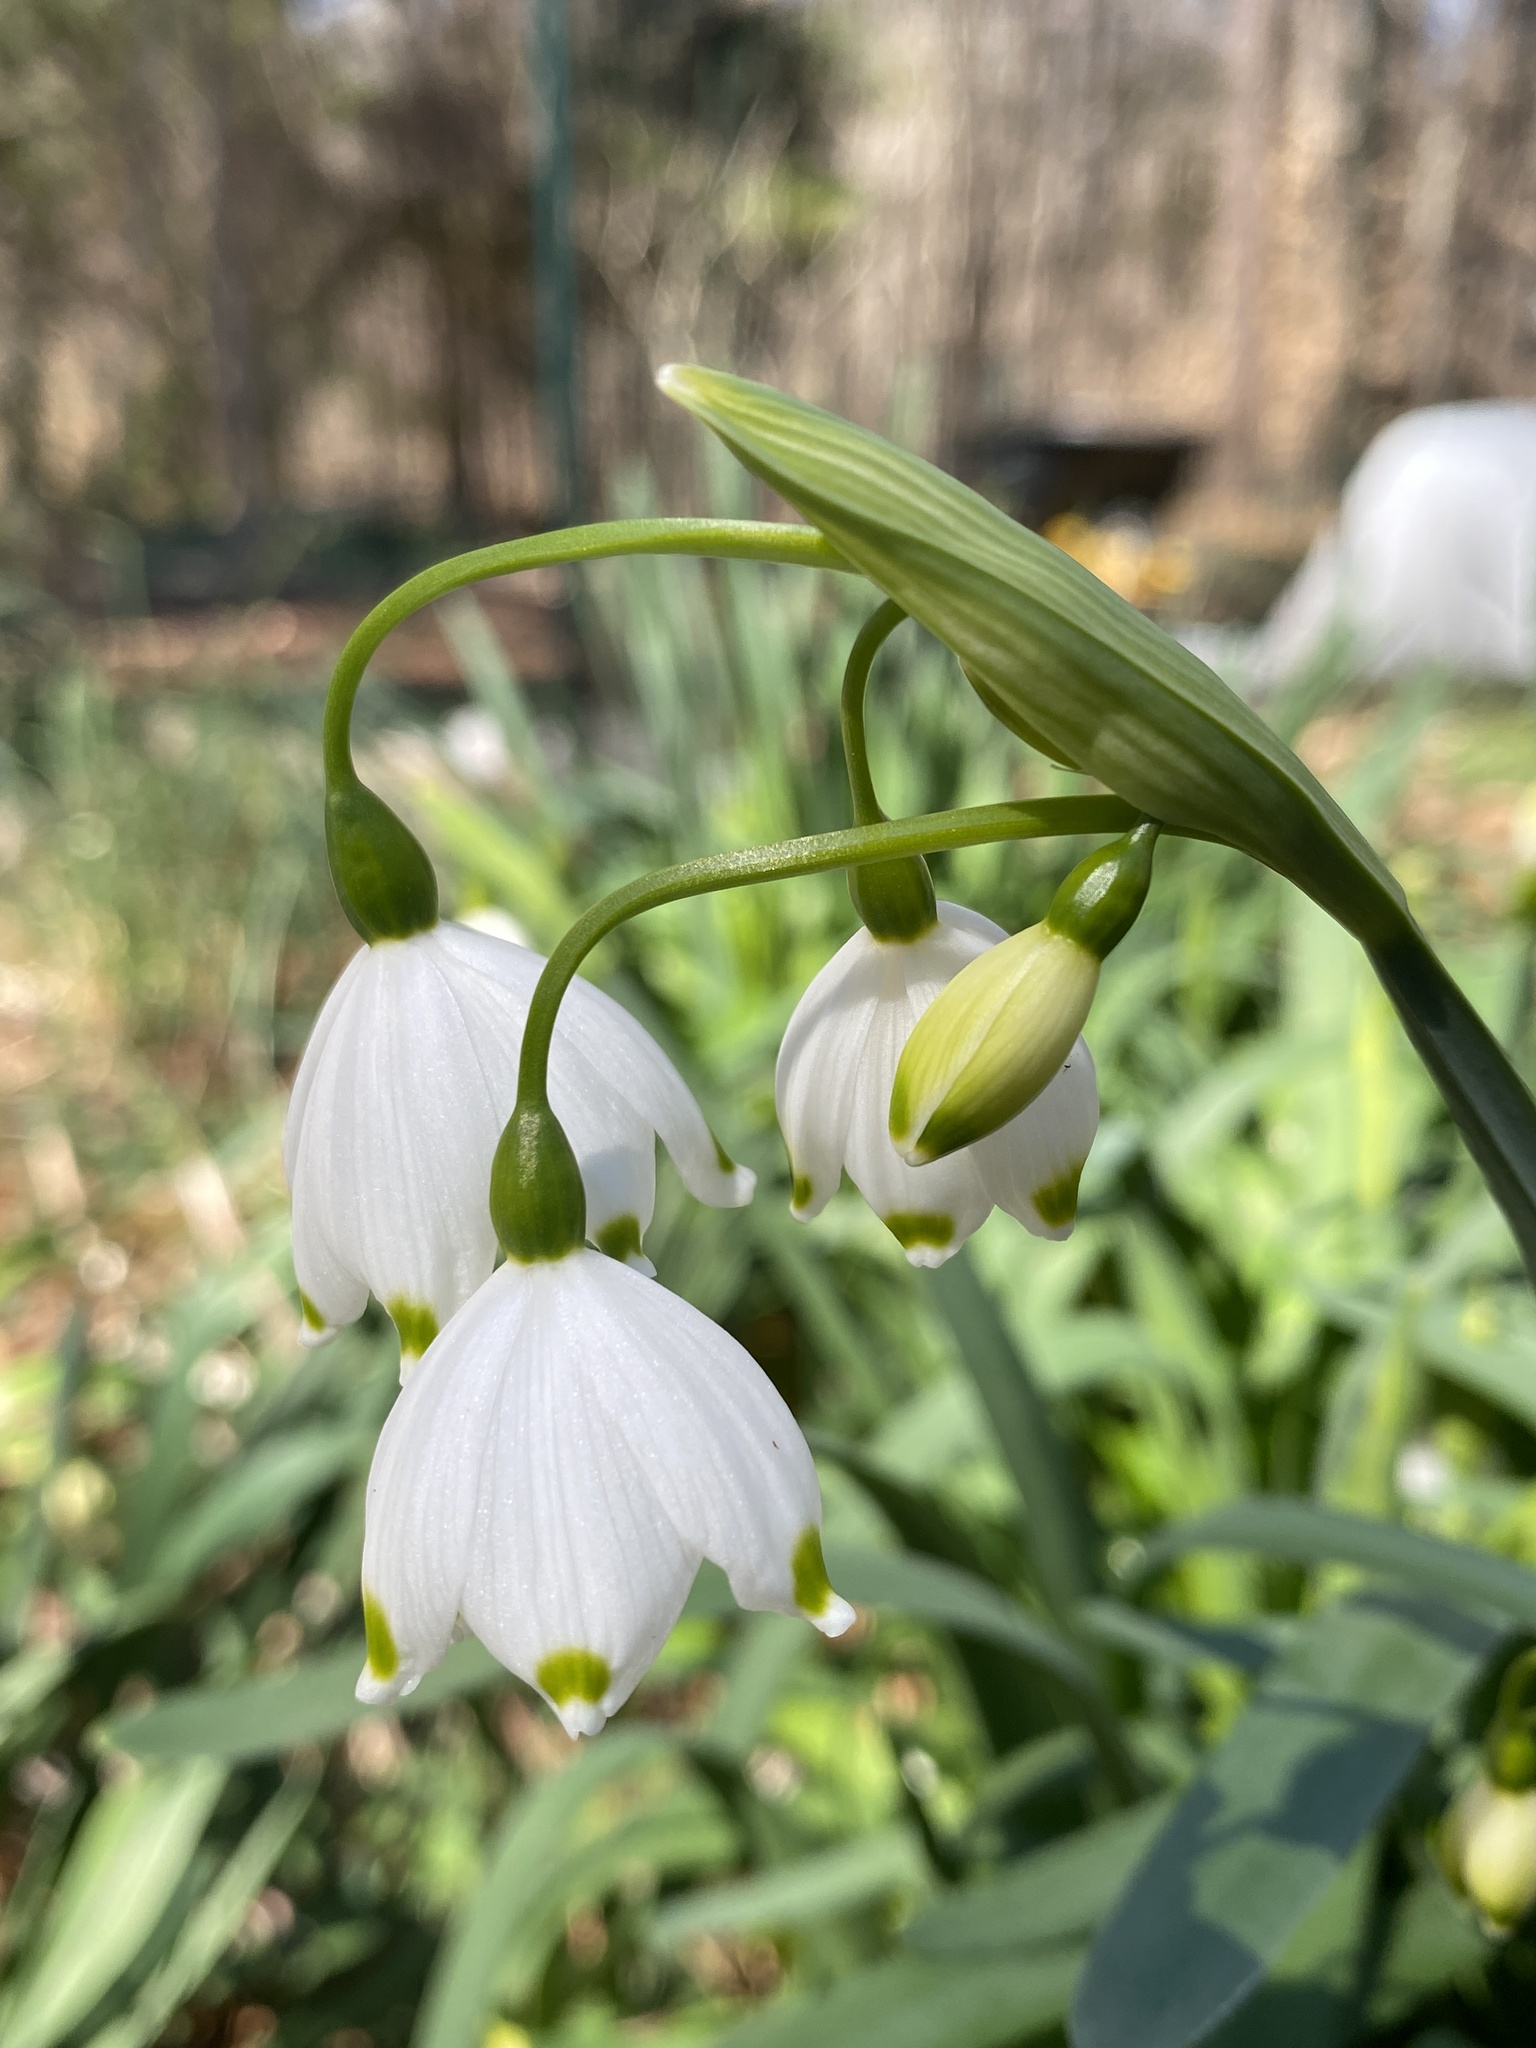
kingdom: Plantae
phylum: Tracheophyta
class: Liliopsida
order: Asparagales
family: Amaryllidaceae
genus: Leucojum
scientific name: Leucojum aestivum
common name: Summer snowflake
